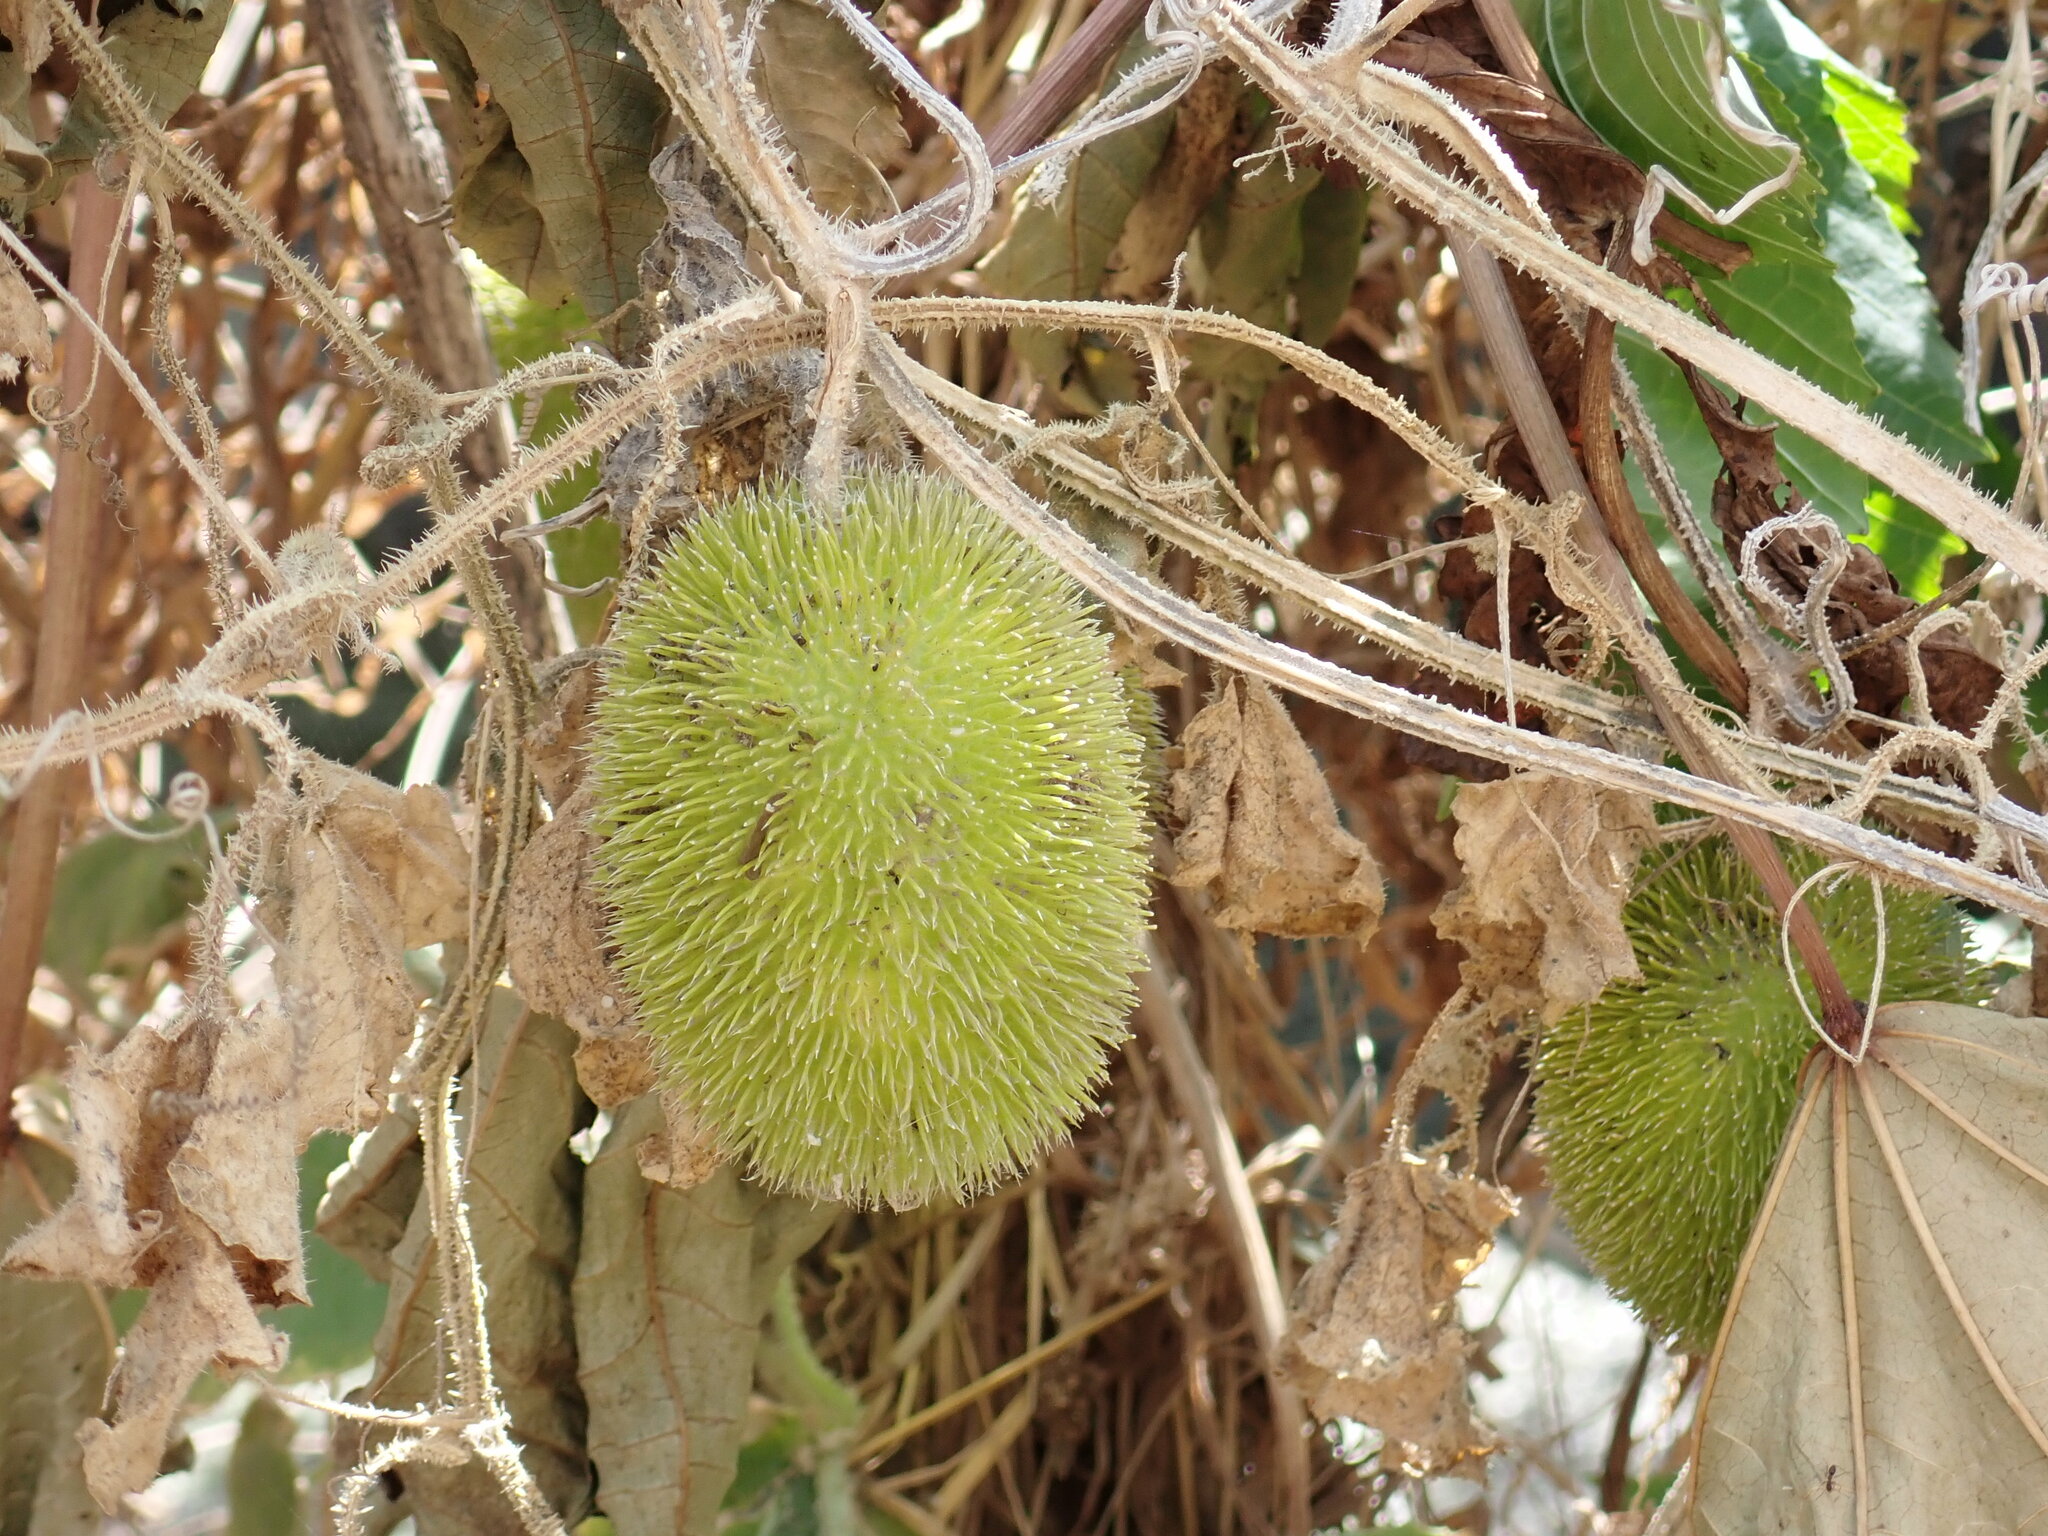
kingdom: Plantae
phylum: Tracheophyta
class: Magnoliopsida
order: Cucurbitales
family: Cucurbitaceae
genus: Cucumis
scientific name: Cucumis dipsaceus
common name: Hedgehog gourd
